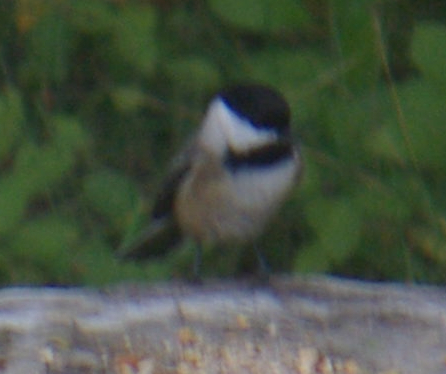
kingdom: Animalia
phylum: Chordata
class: Aves
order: Passeriformes
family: Paridae
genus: Poecile
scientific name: Poecile atricapillus
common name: Black-capped chickadee
